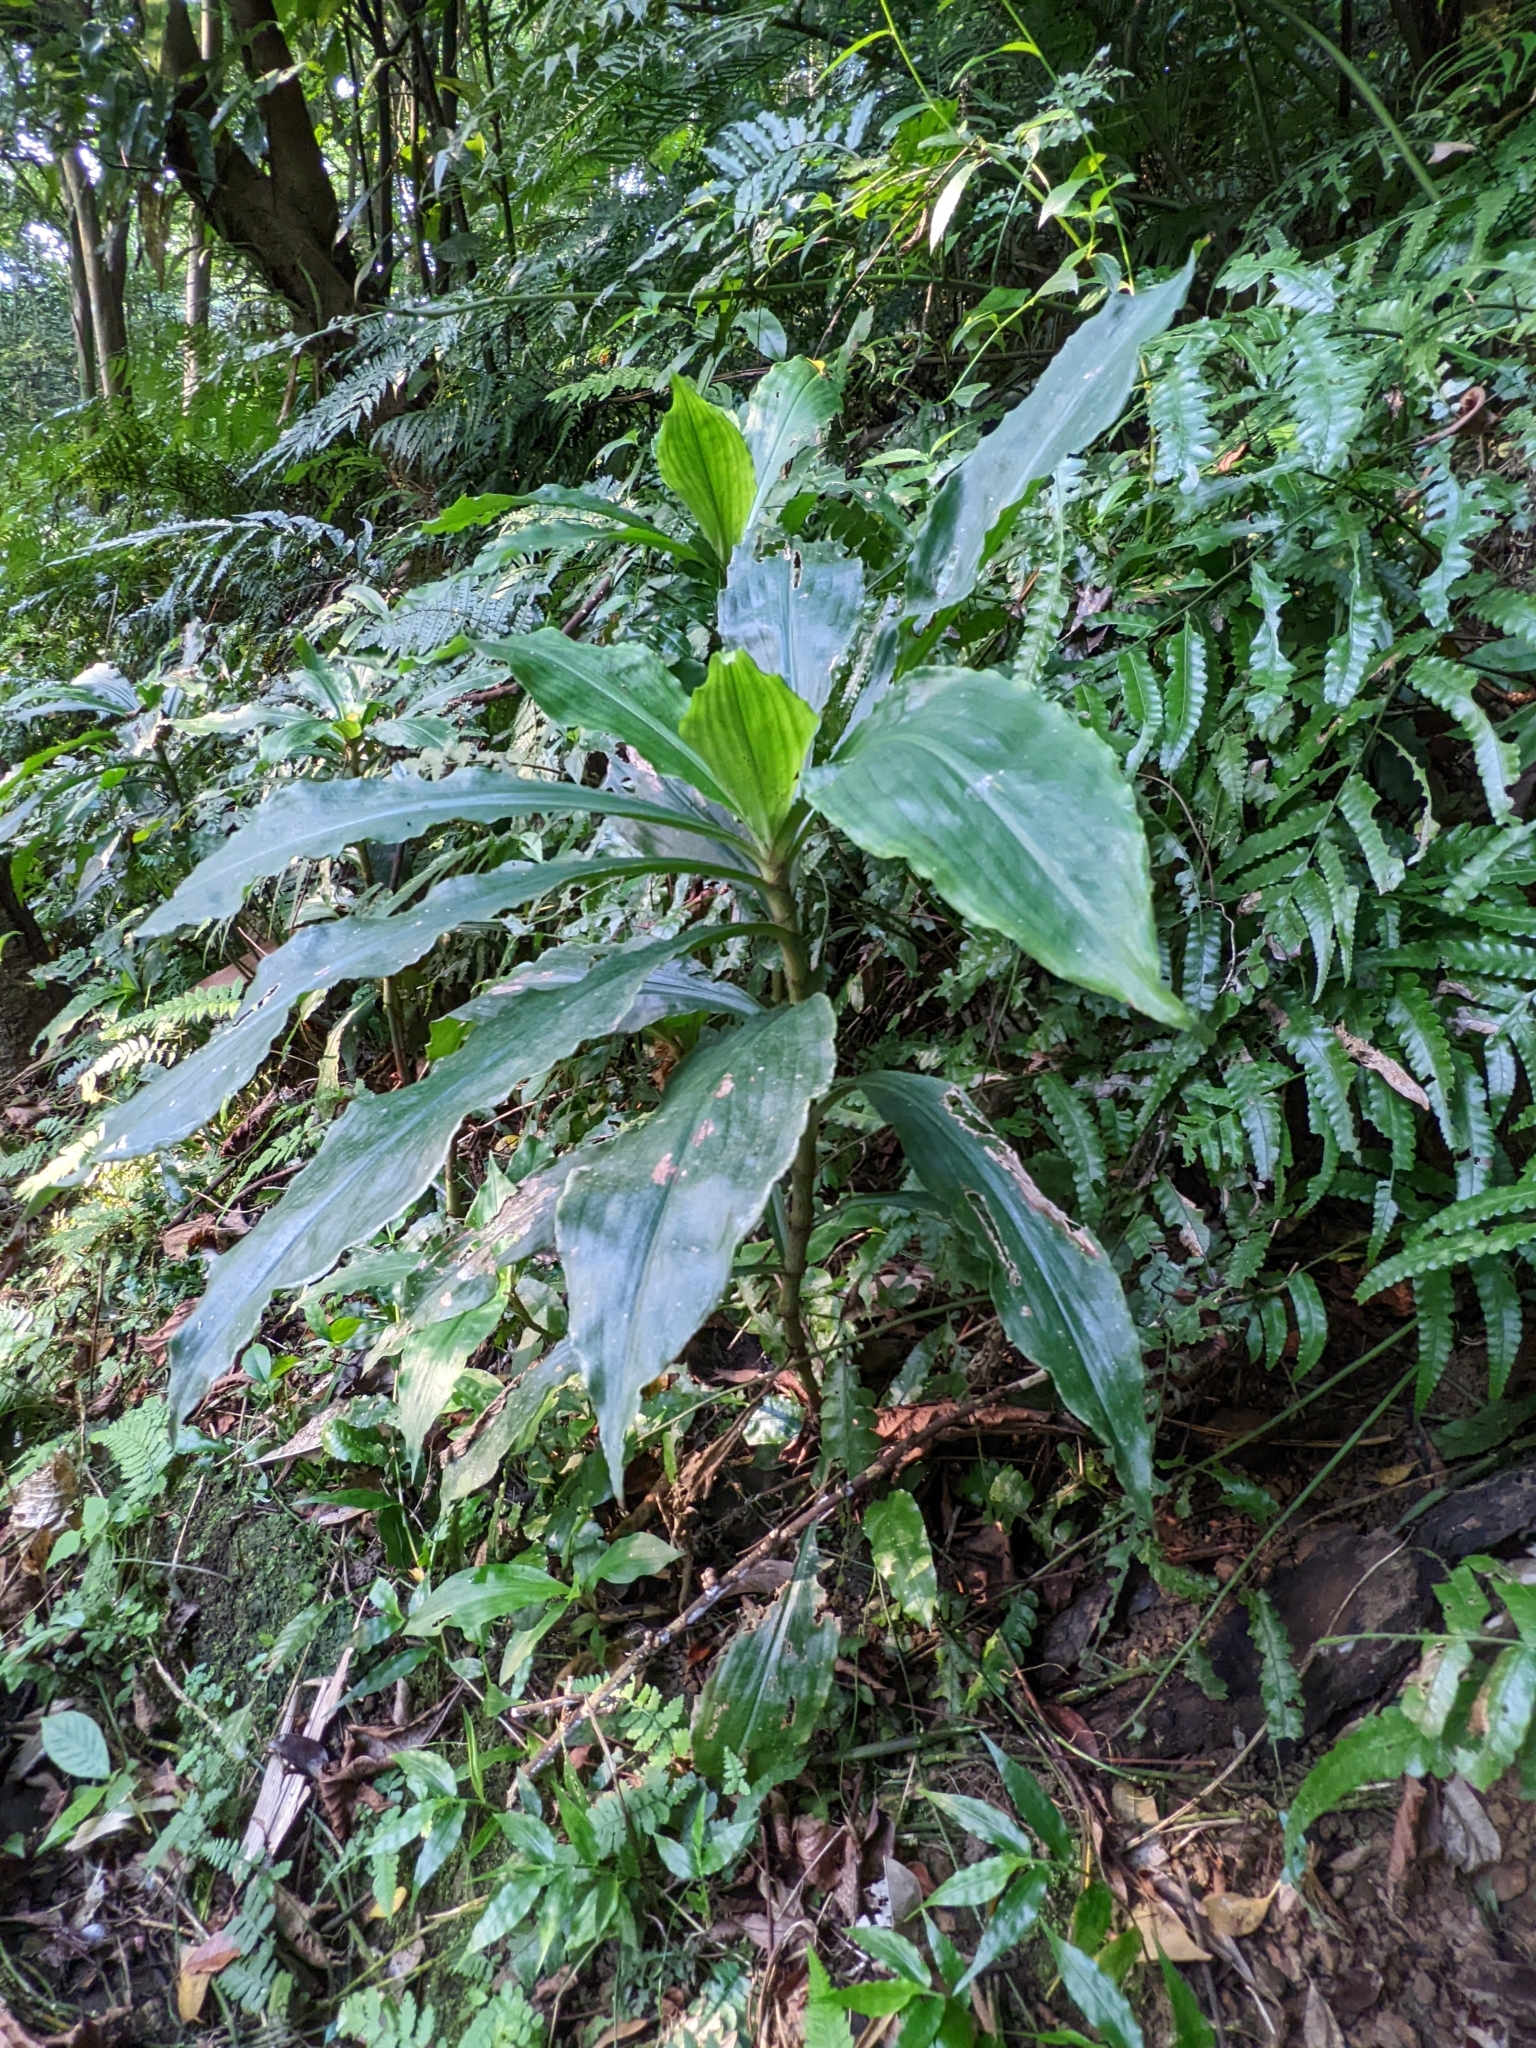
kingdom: Plantae
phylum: Tracheophyta
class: Liliopsida
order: Commelinales
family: Commelinaceae
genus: Amischotolype
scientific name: Amischotolype glabrata
